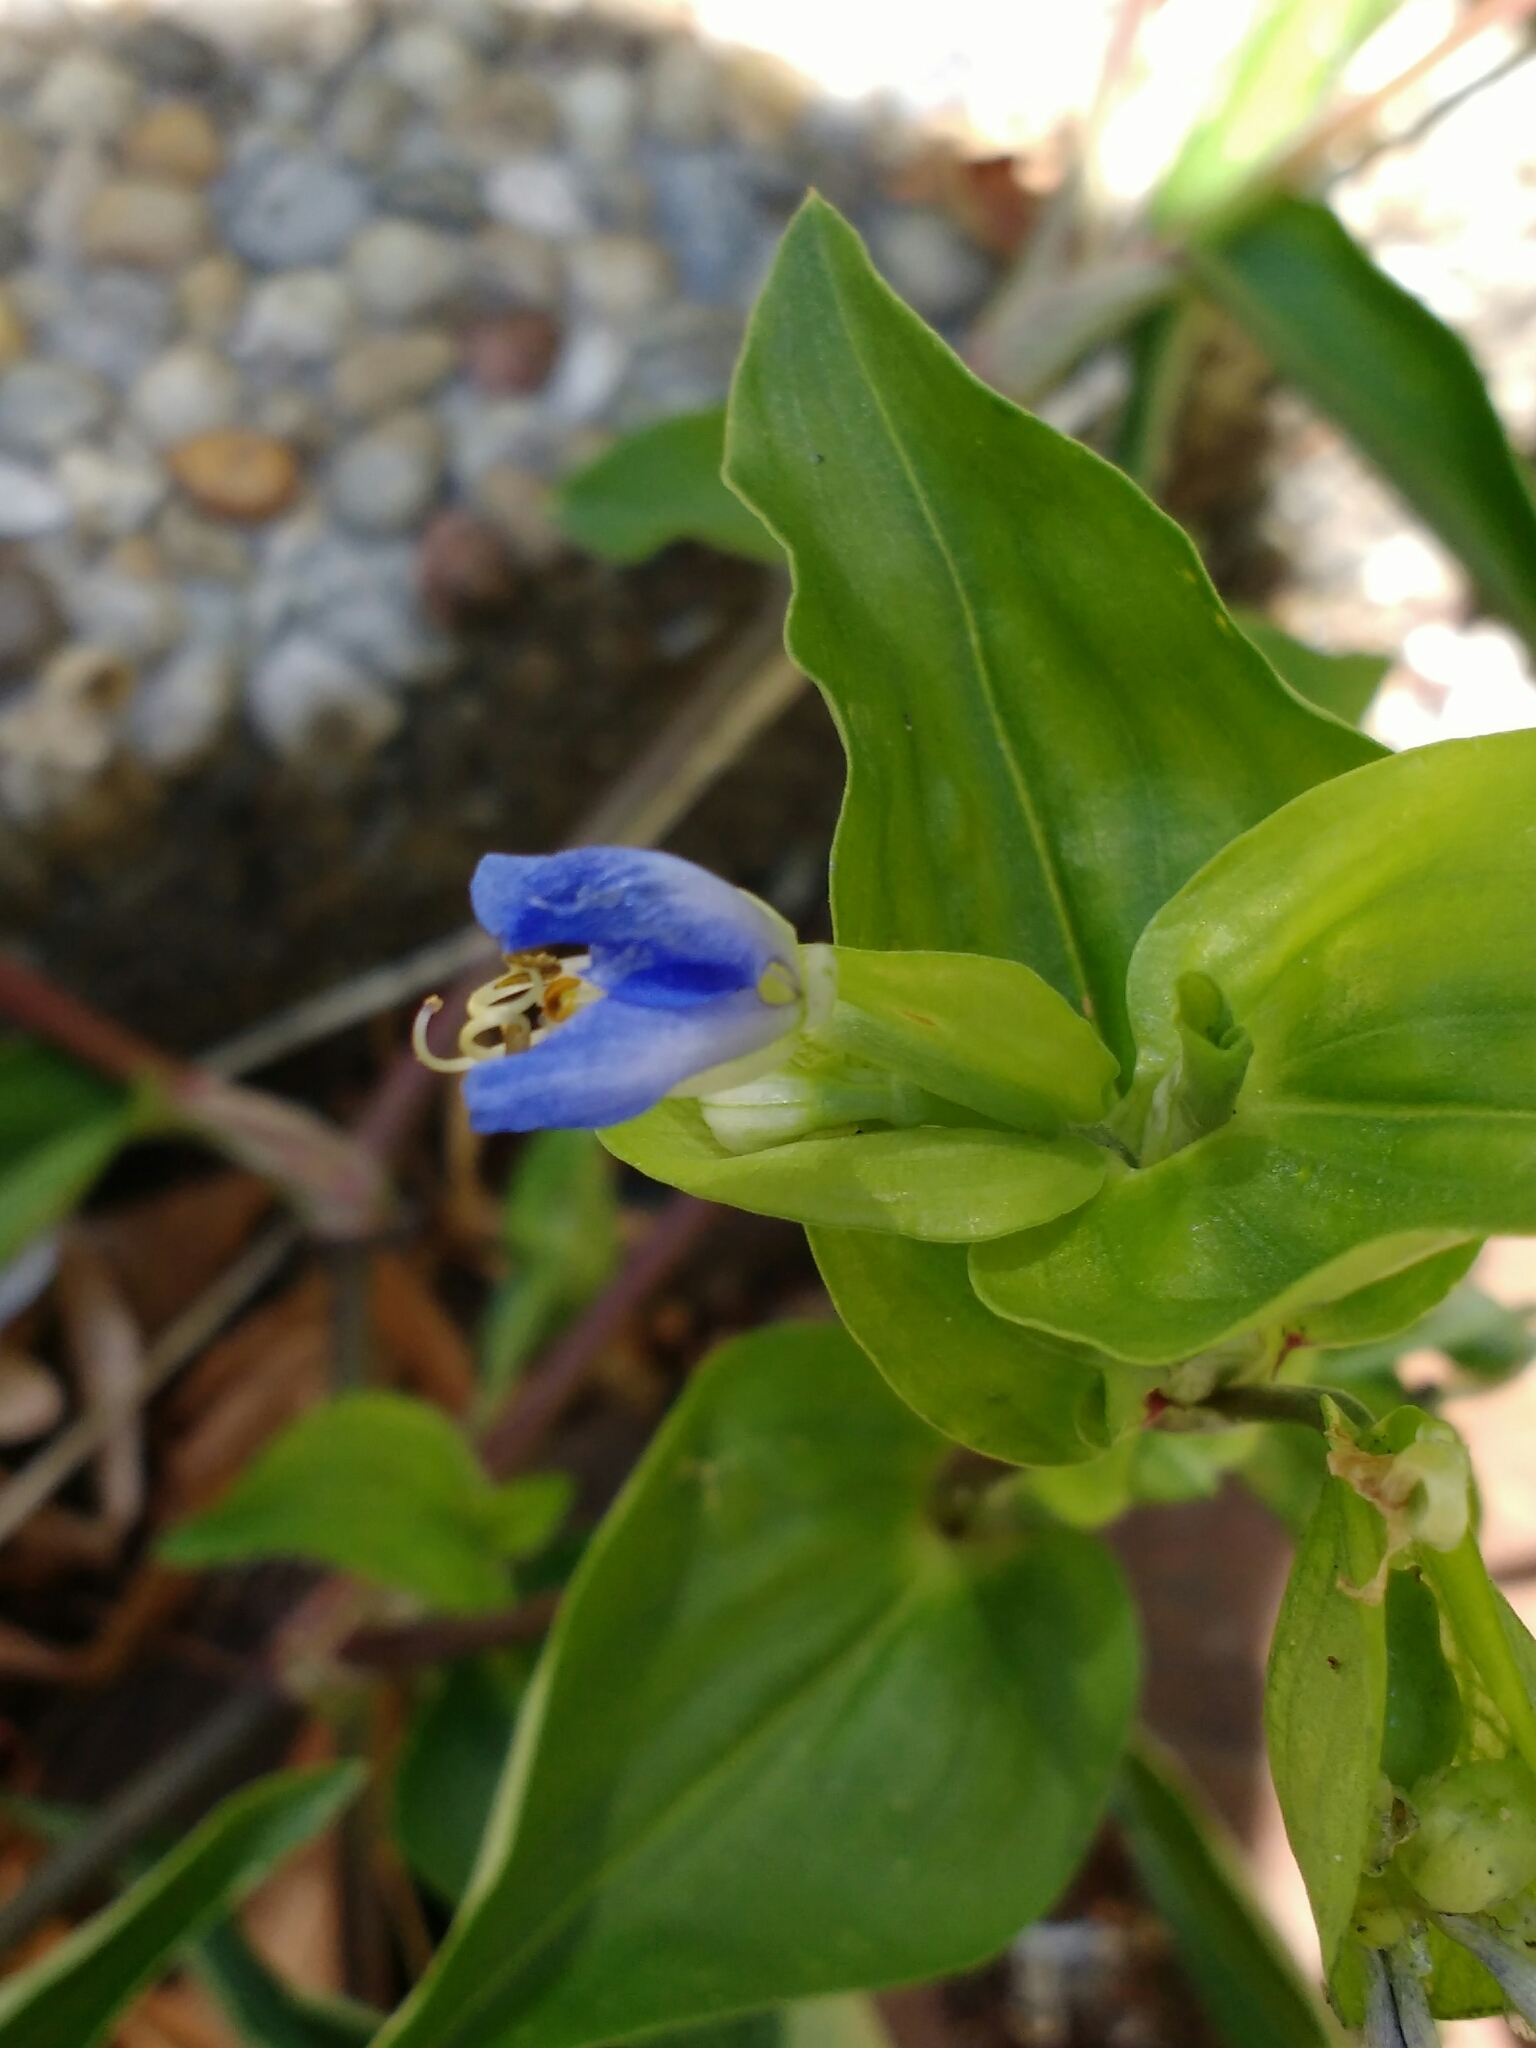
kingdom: Plantae
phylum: Tracheophyta
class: Liliopsida
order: Commelinales
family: Commelinaceae
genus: Commelina
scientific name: Commelina communis
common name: Asiatic dayflower
